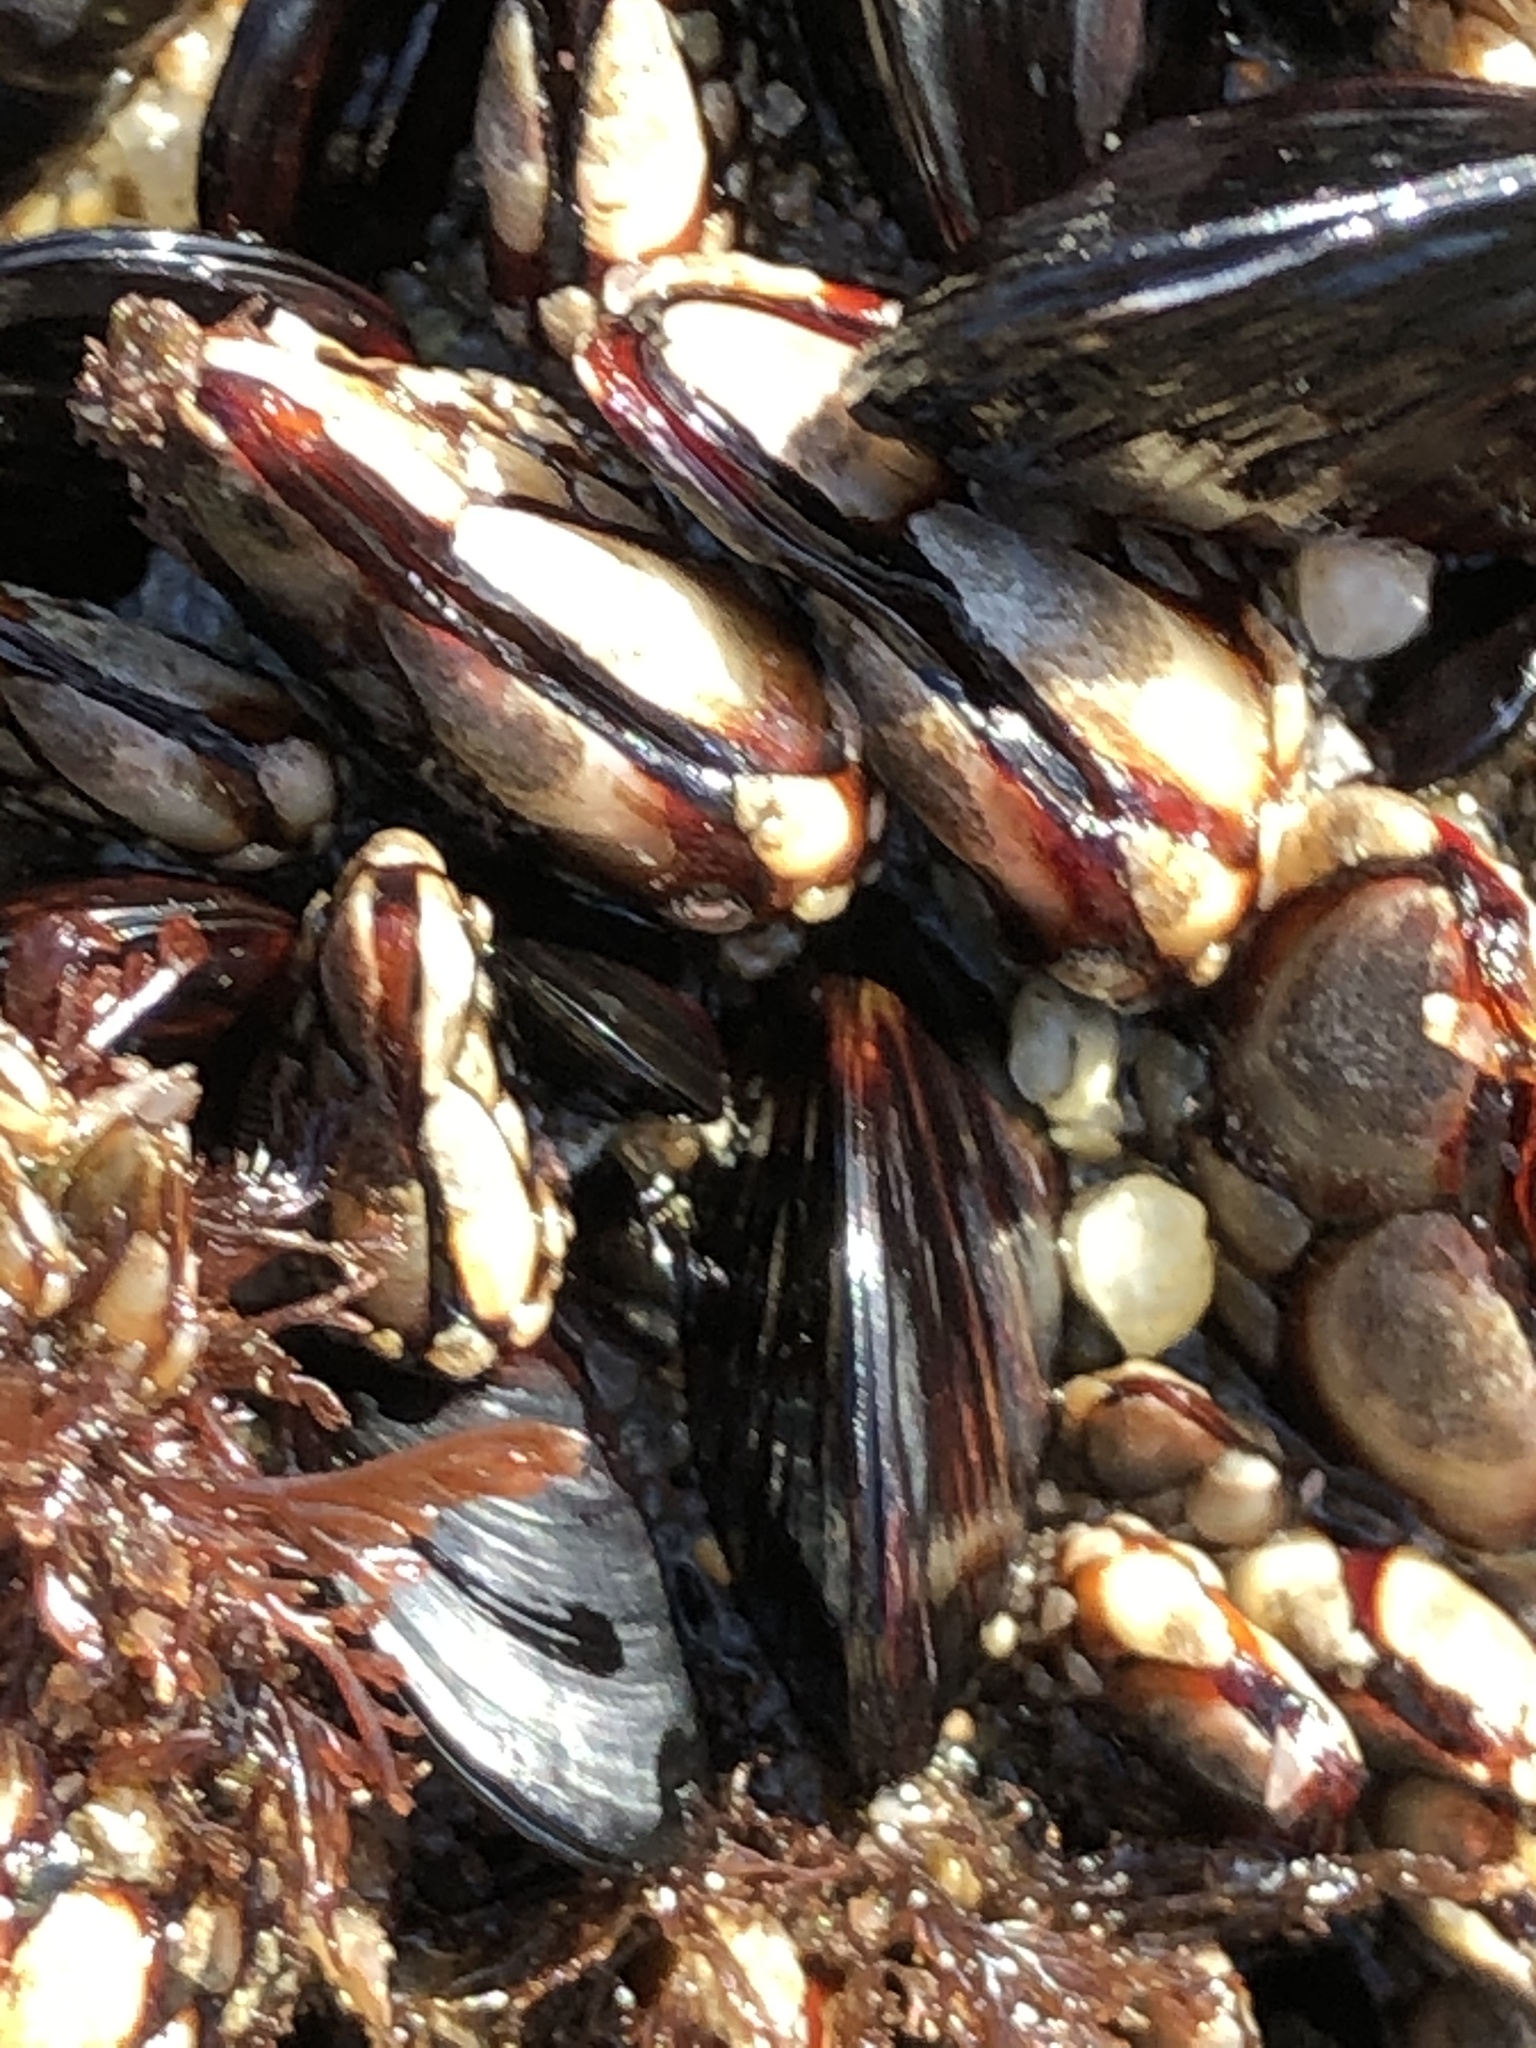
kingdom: Animalia
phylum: Arthropoda
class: Maxillopoda
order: Pedunculata
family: Pollicipedidae
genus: Pollicipes
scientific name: Pollicipes polymerus
